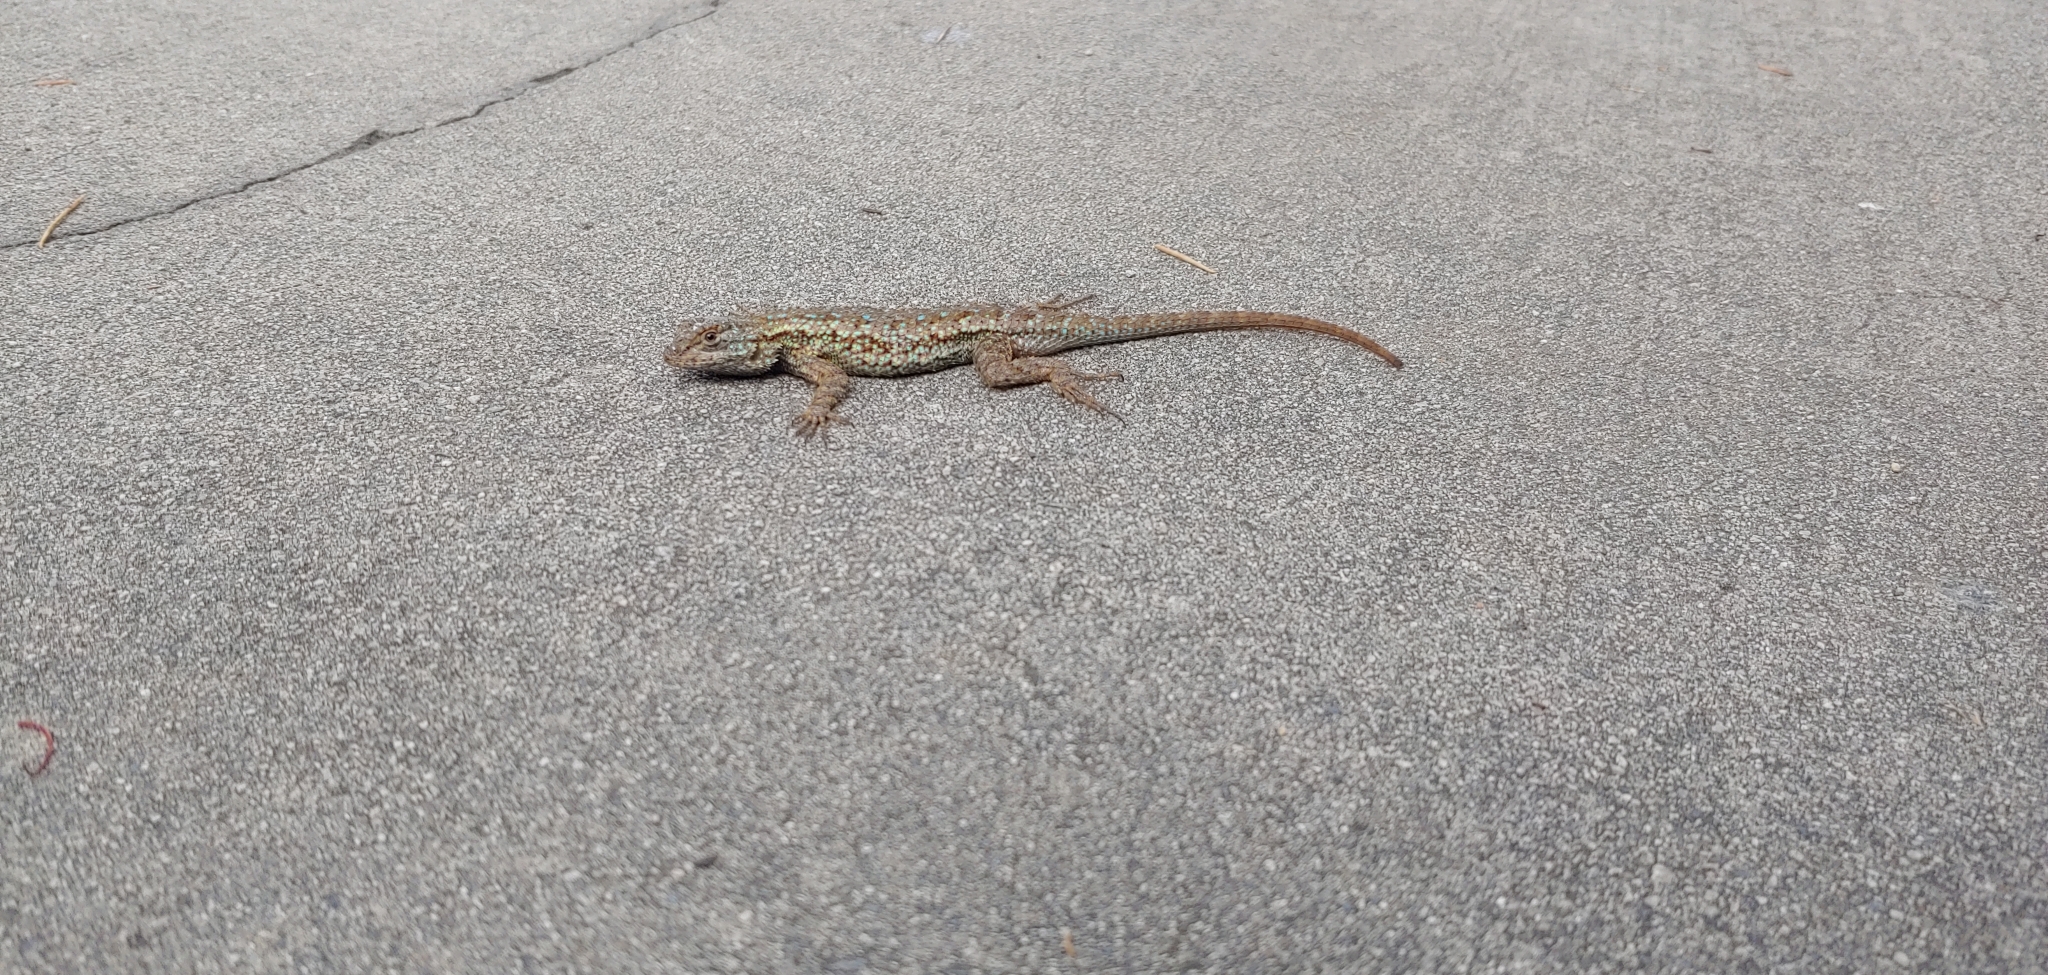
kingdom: Animalia
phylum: Chordata
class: Squamata
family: Phrynosomatidae
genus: Sceloporus
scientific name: Sceloporus occidentalis
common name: Western fence lizard
